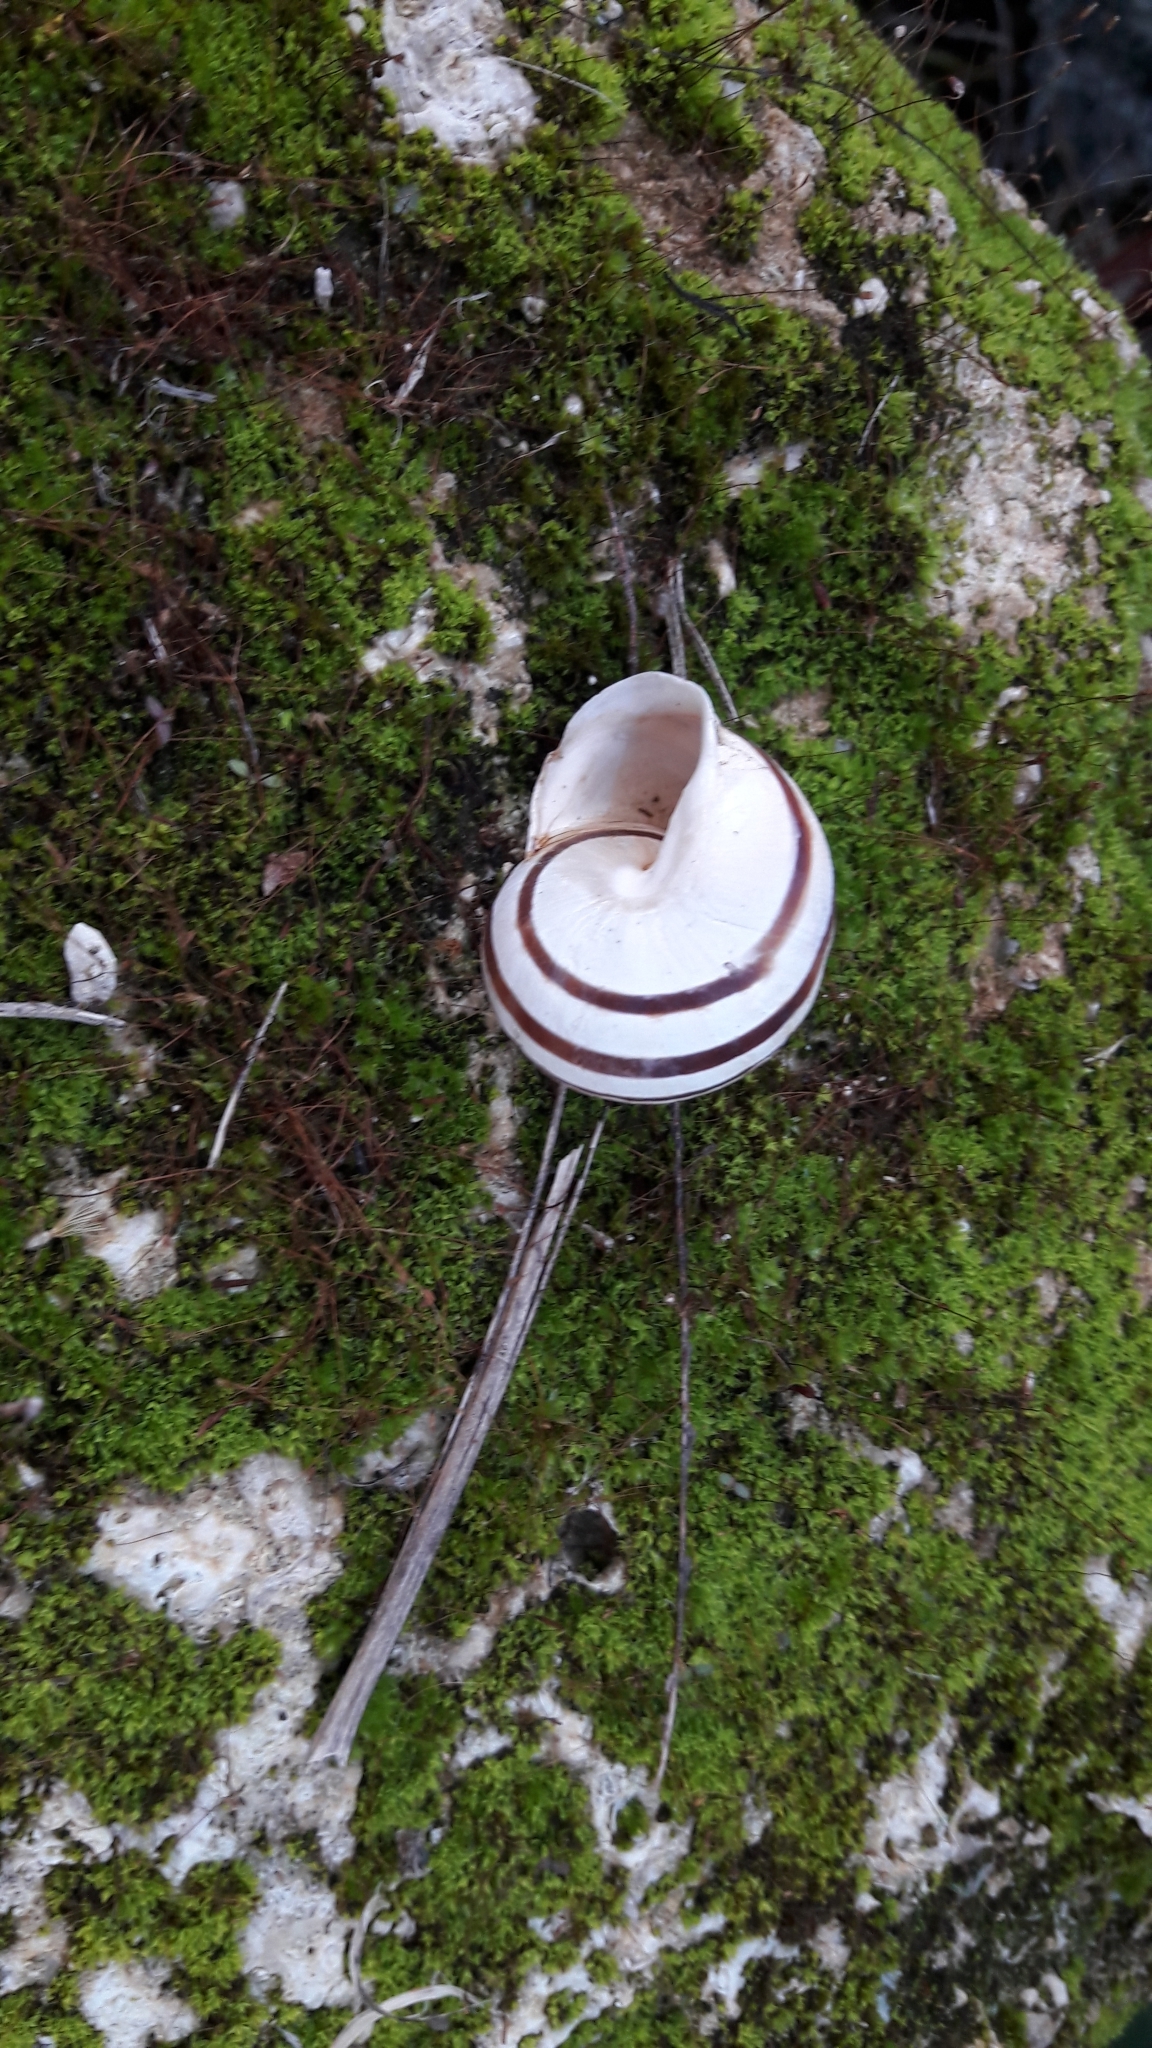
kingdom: Animalia
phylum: Mollusca
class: Gastropoda
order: Stylommatophora
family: Helicidae
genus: Eobania
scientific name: Eobania vermiculata
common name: Chocolateband snail
